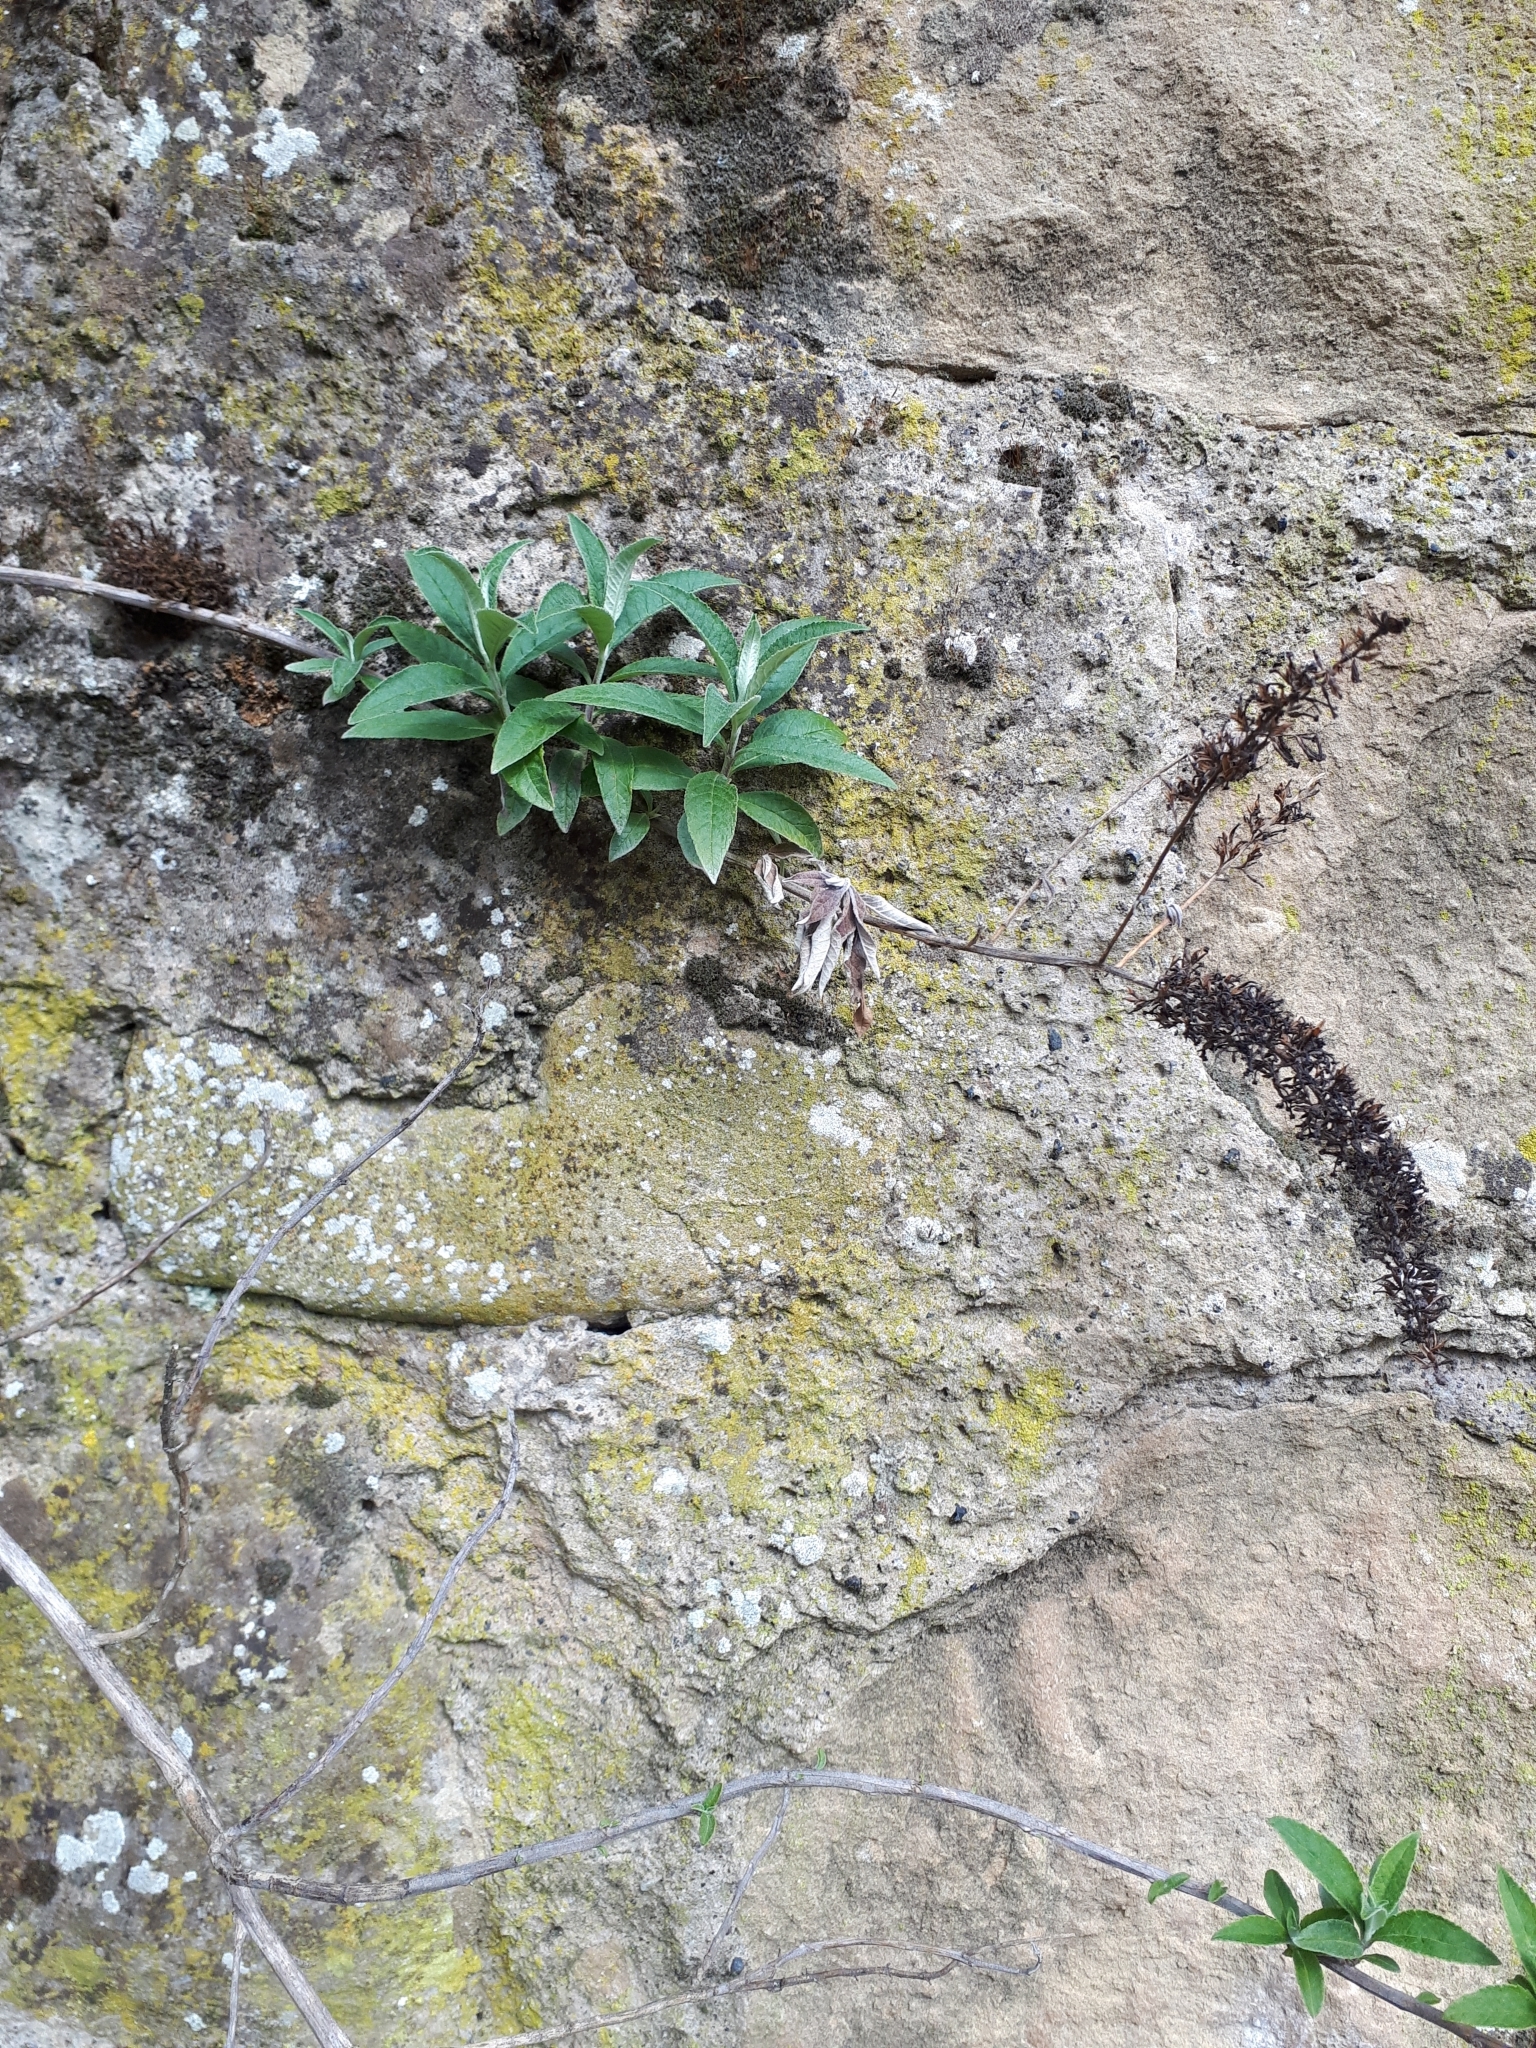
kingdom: Plantae
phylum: Tracheophyta
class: Magnoliopsida
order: Lamiales
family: Scrophulariaceae
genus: Buddleja
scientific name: Buddleja davidii
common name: Butterfly-bush
